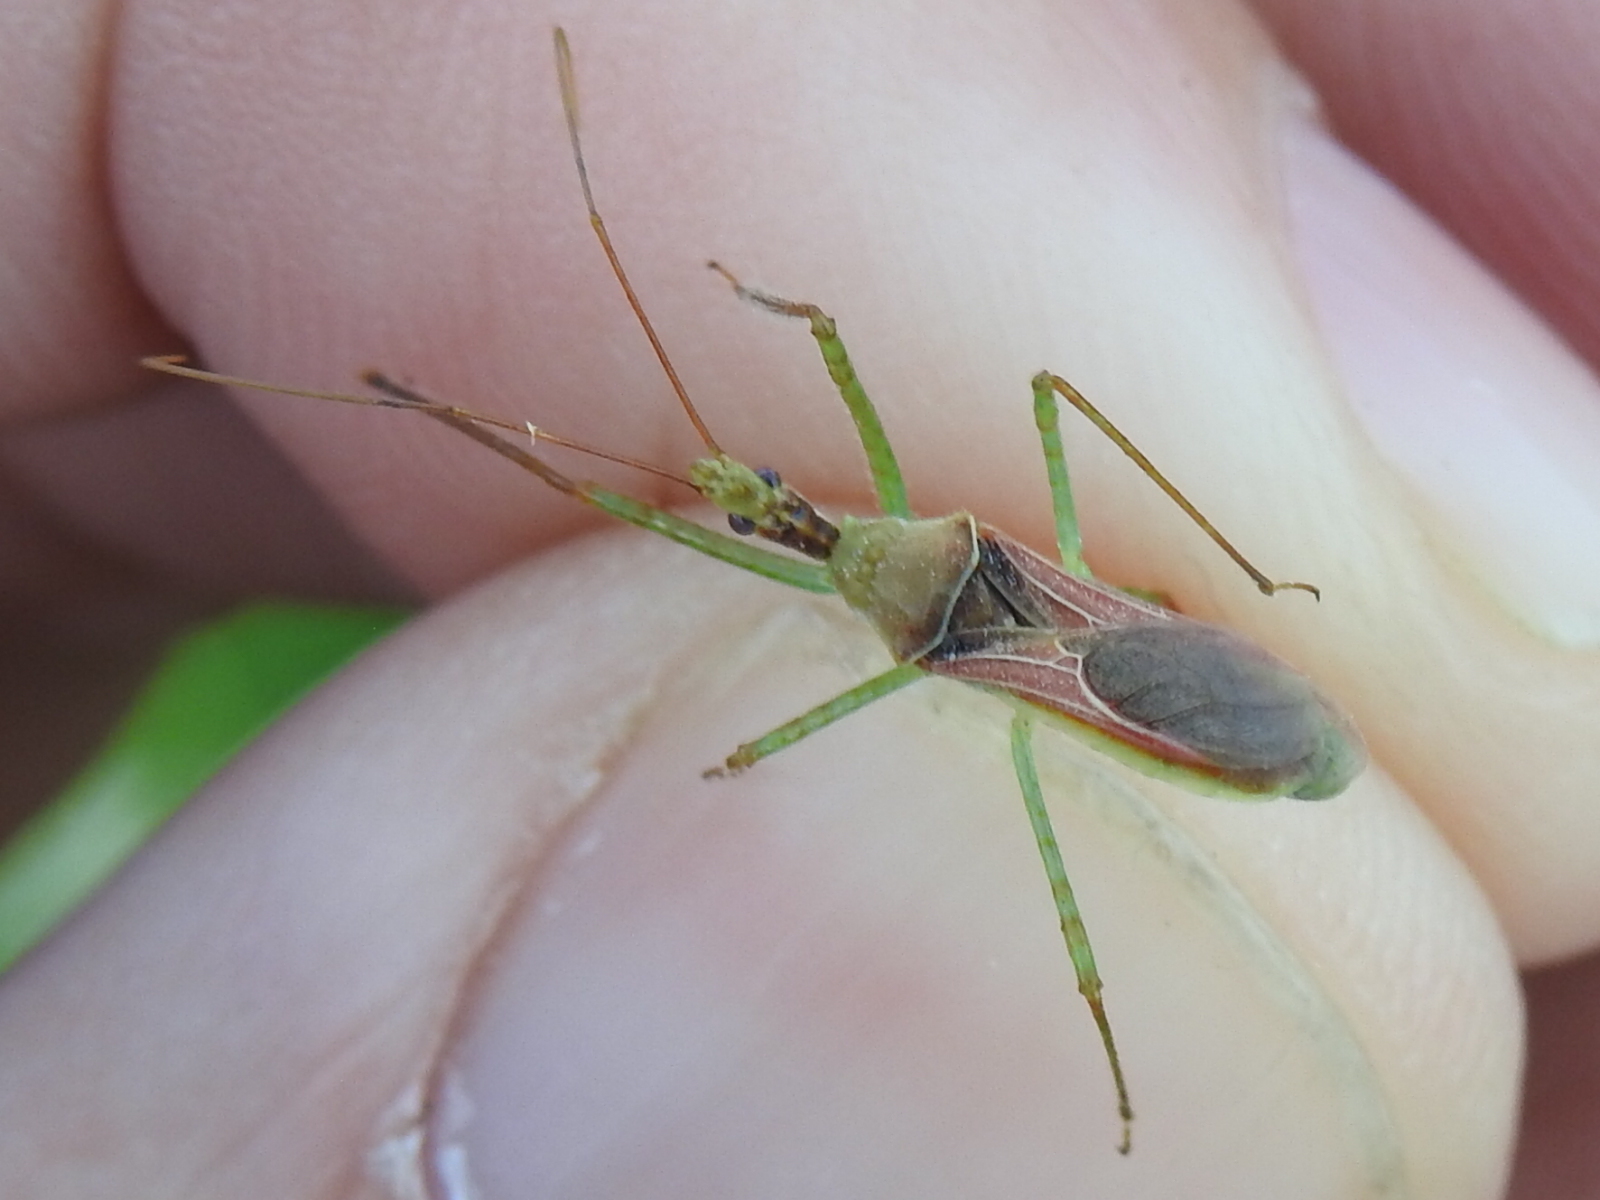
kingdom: Animalia
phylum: Arthropoda
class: Insecta
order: Hemiptera
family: Reduviidae
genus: Zelus
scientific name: Zelus renardii
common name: Assassin bug
